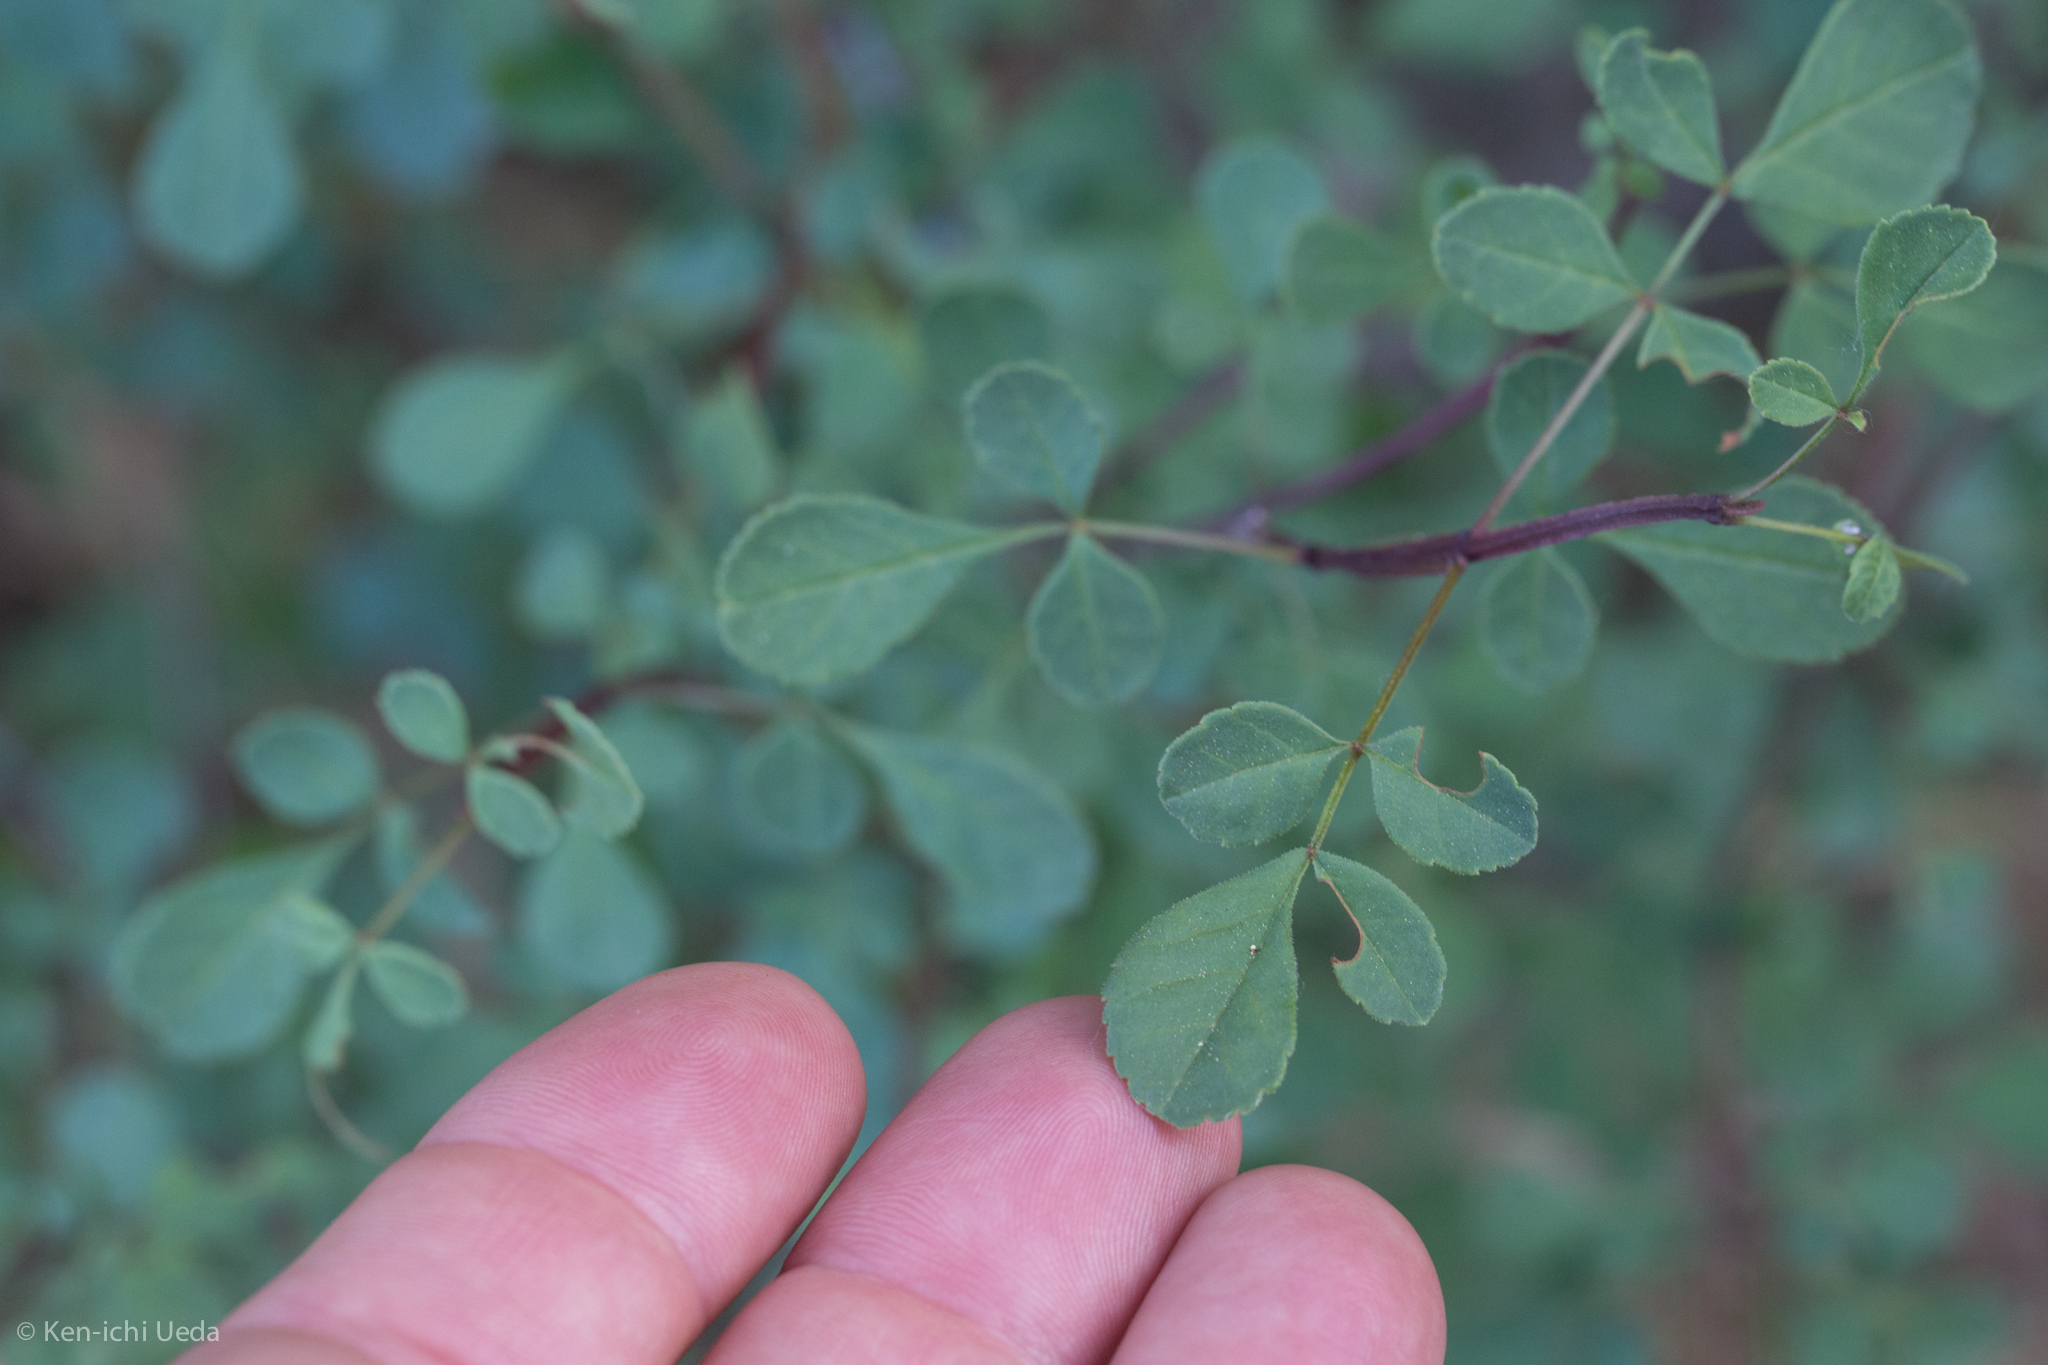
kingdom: Plantae
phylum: Tracheophyta
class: Magnoliopsida
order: Lamiales
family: Oleaceae
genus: Fraxinus
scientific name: Fraxinus dipetala
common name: California ash
